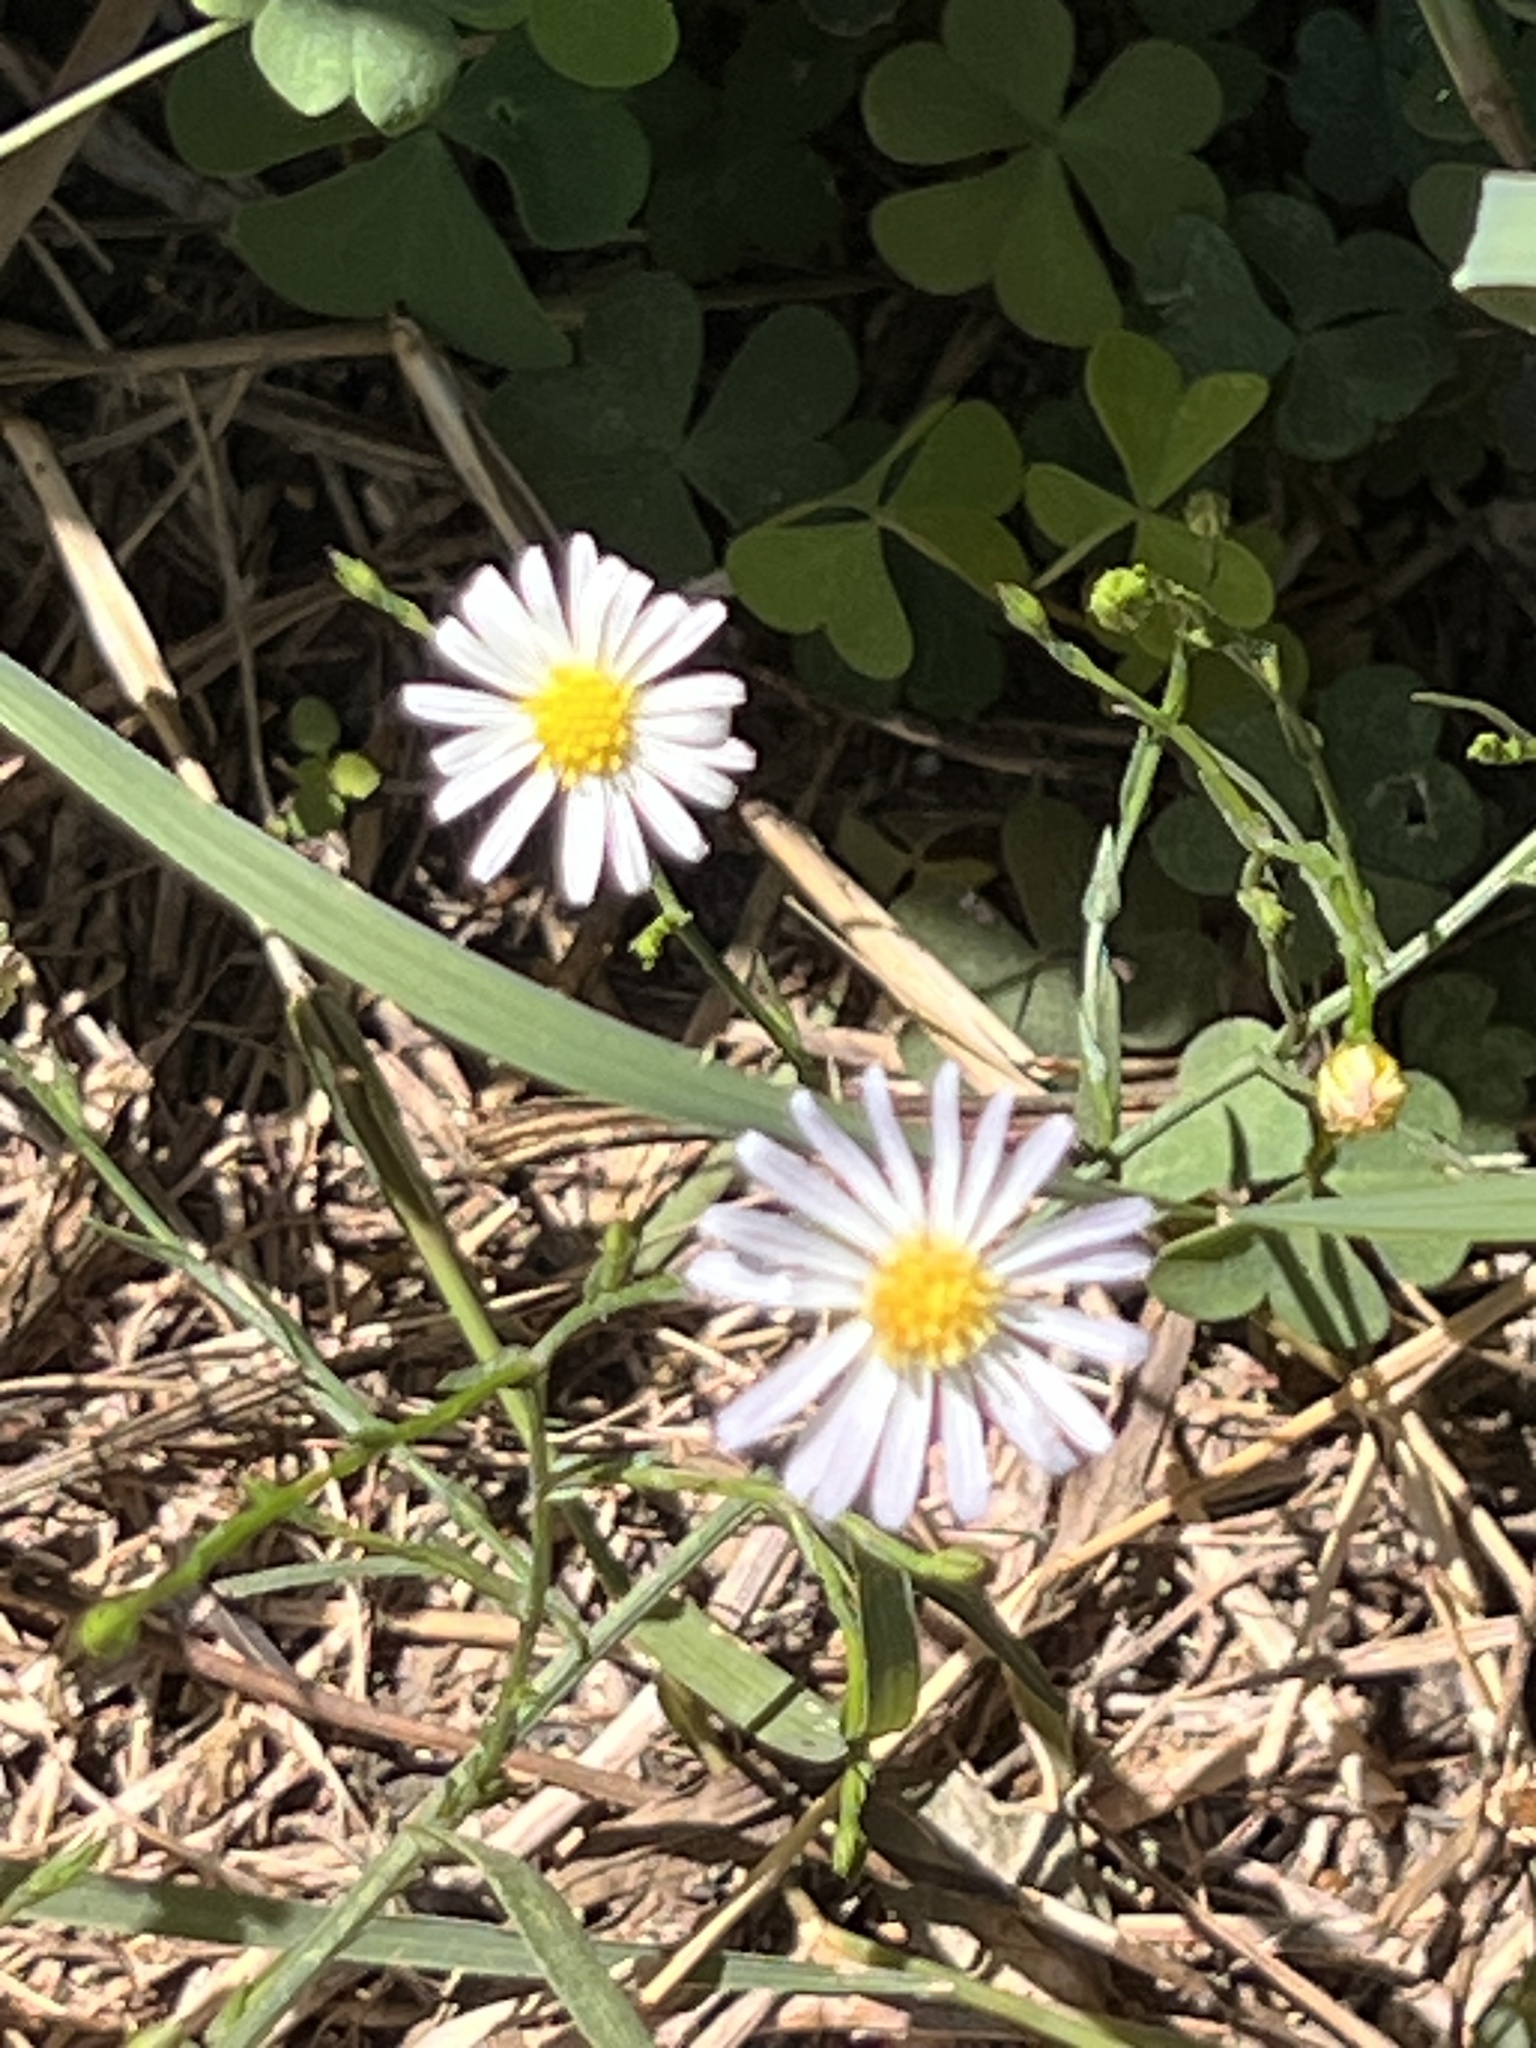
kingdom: Plantae
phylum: Tracheophyta
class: Magnoliopsida
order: Asterales
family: Asteraceae
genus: Symphyotrichum
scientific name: Symphyotrichum divaricatum
